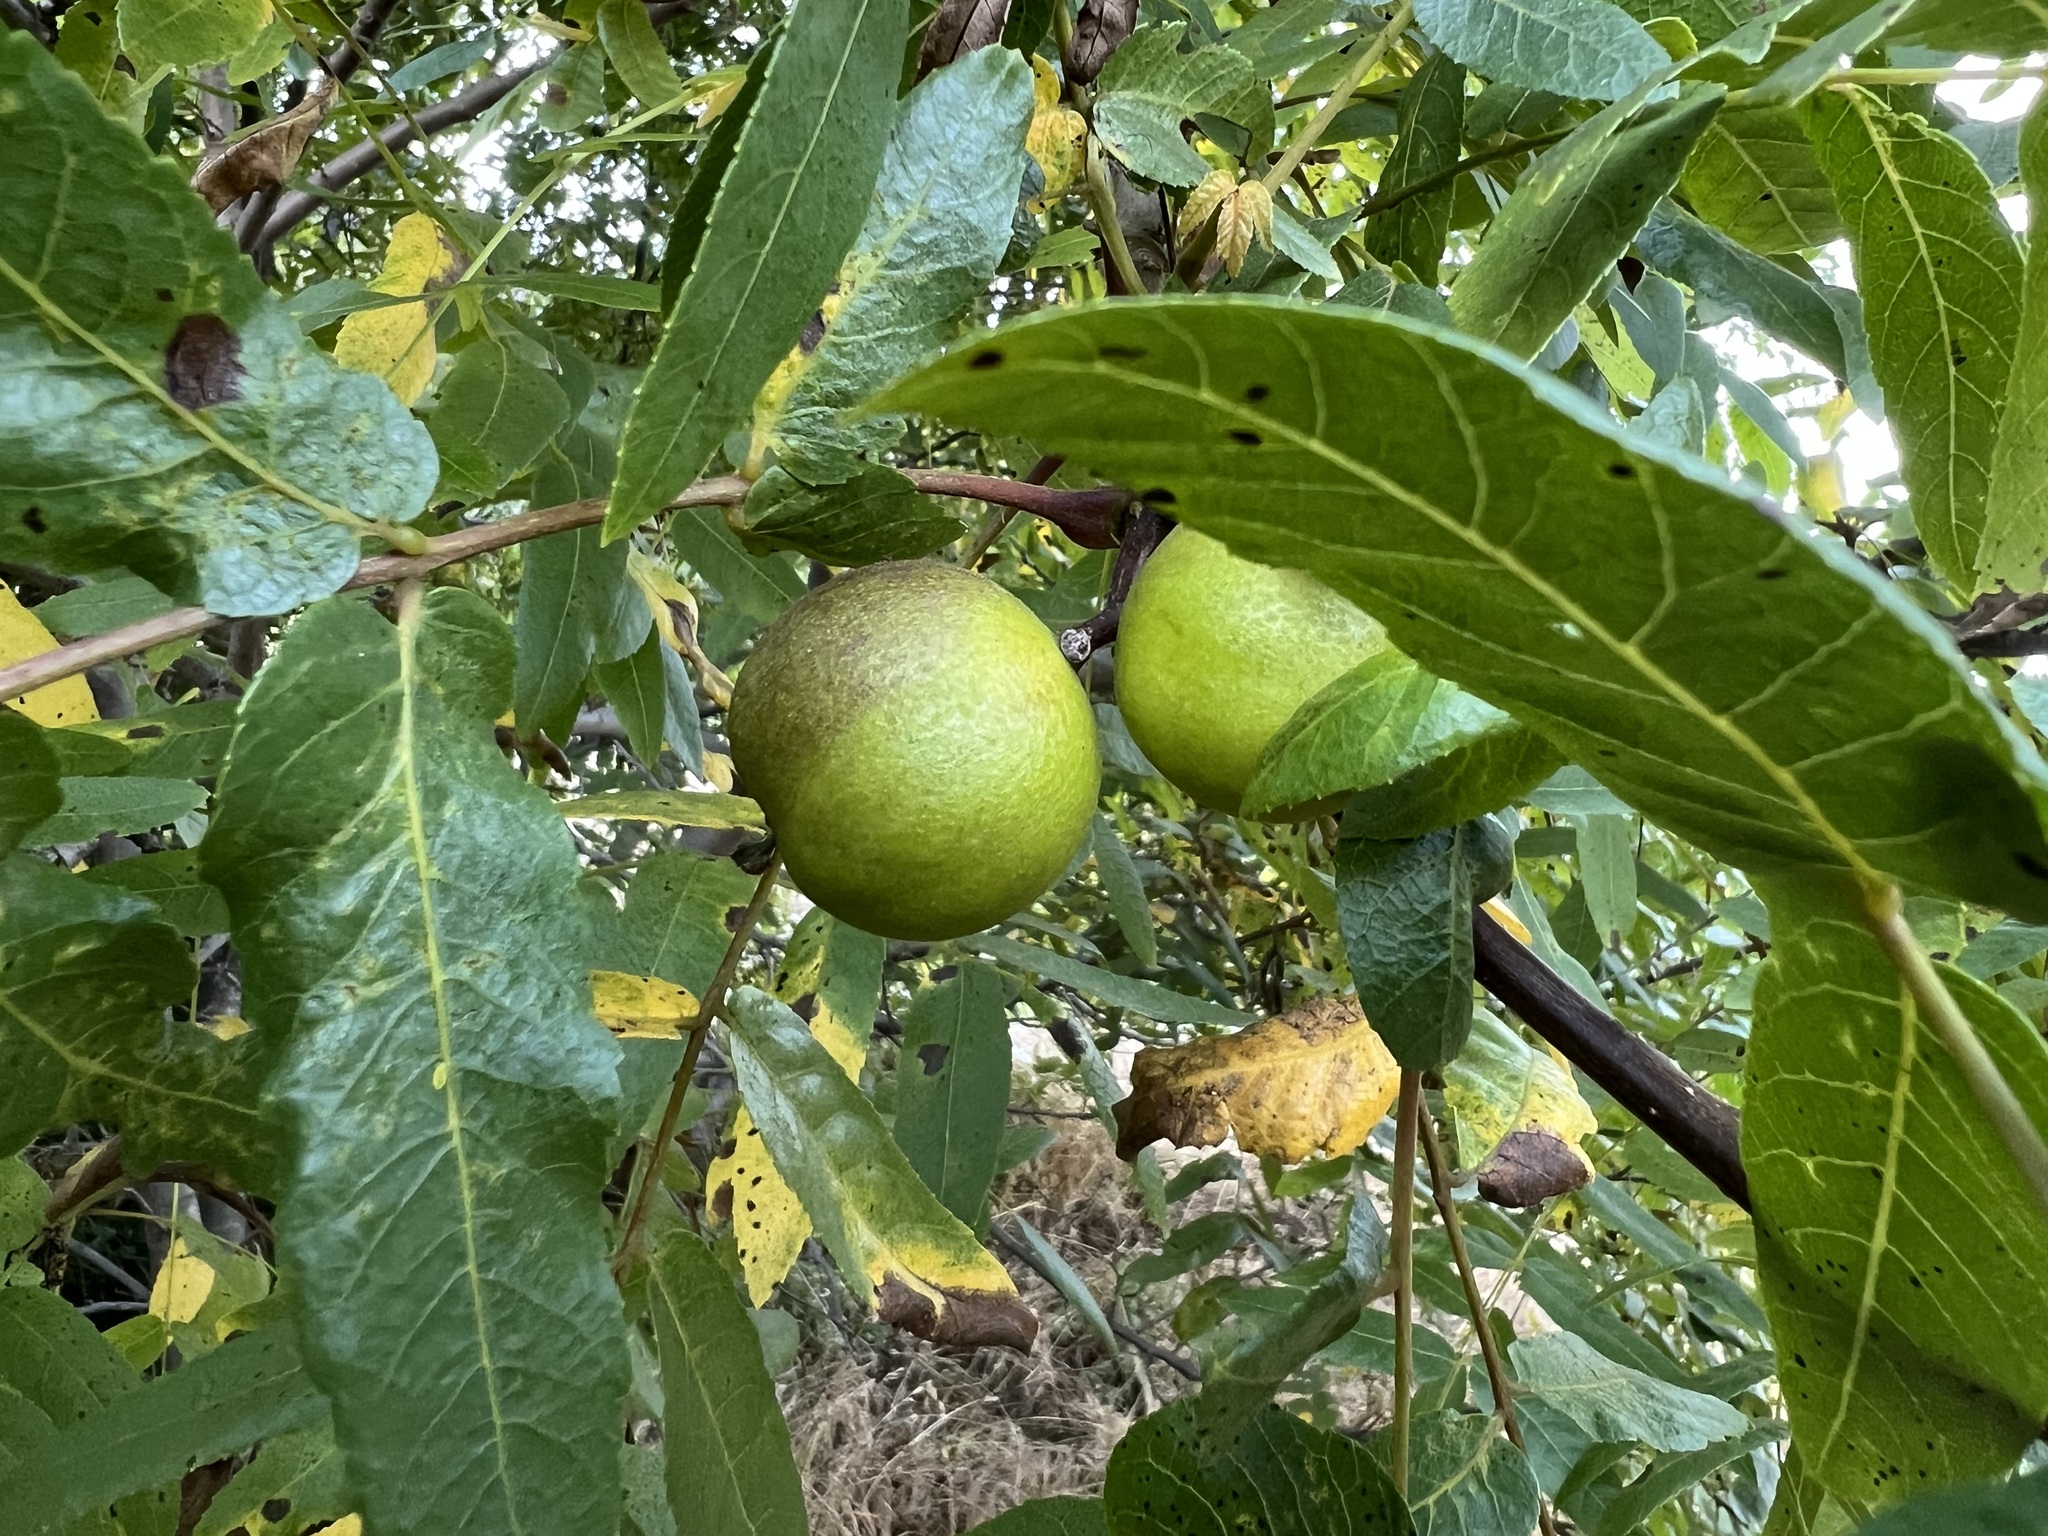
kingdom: Plantae
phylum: Tracheophyta
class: Magnoliopsida
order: Fagales
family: Juglandaceae
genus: Juglans
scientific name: Juglans californica
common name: Southern california black walnut
